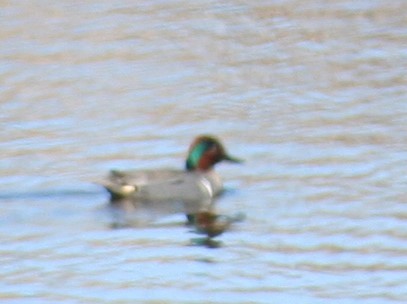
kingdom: Animalia
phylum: Chordata
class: Aves
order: Anseriformes
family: Anatidae
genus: Anas
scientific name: Anas crecca
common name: Eurasian teal
